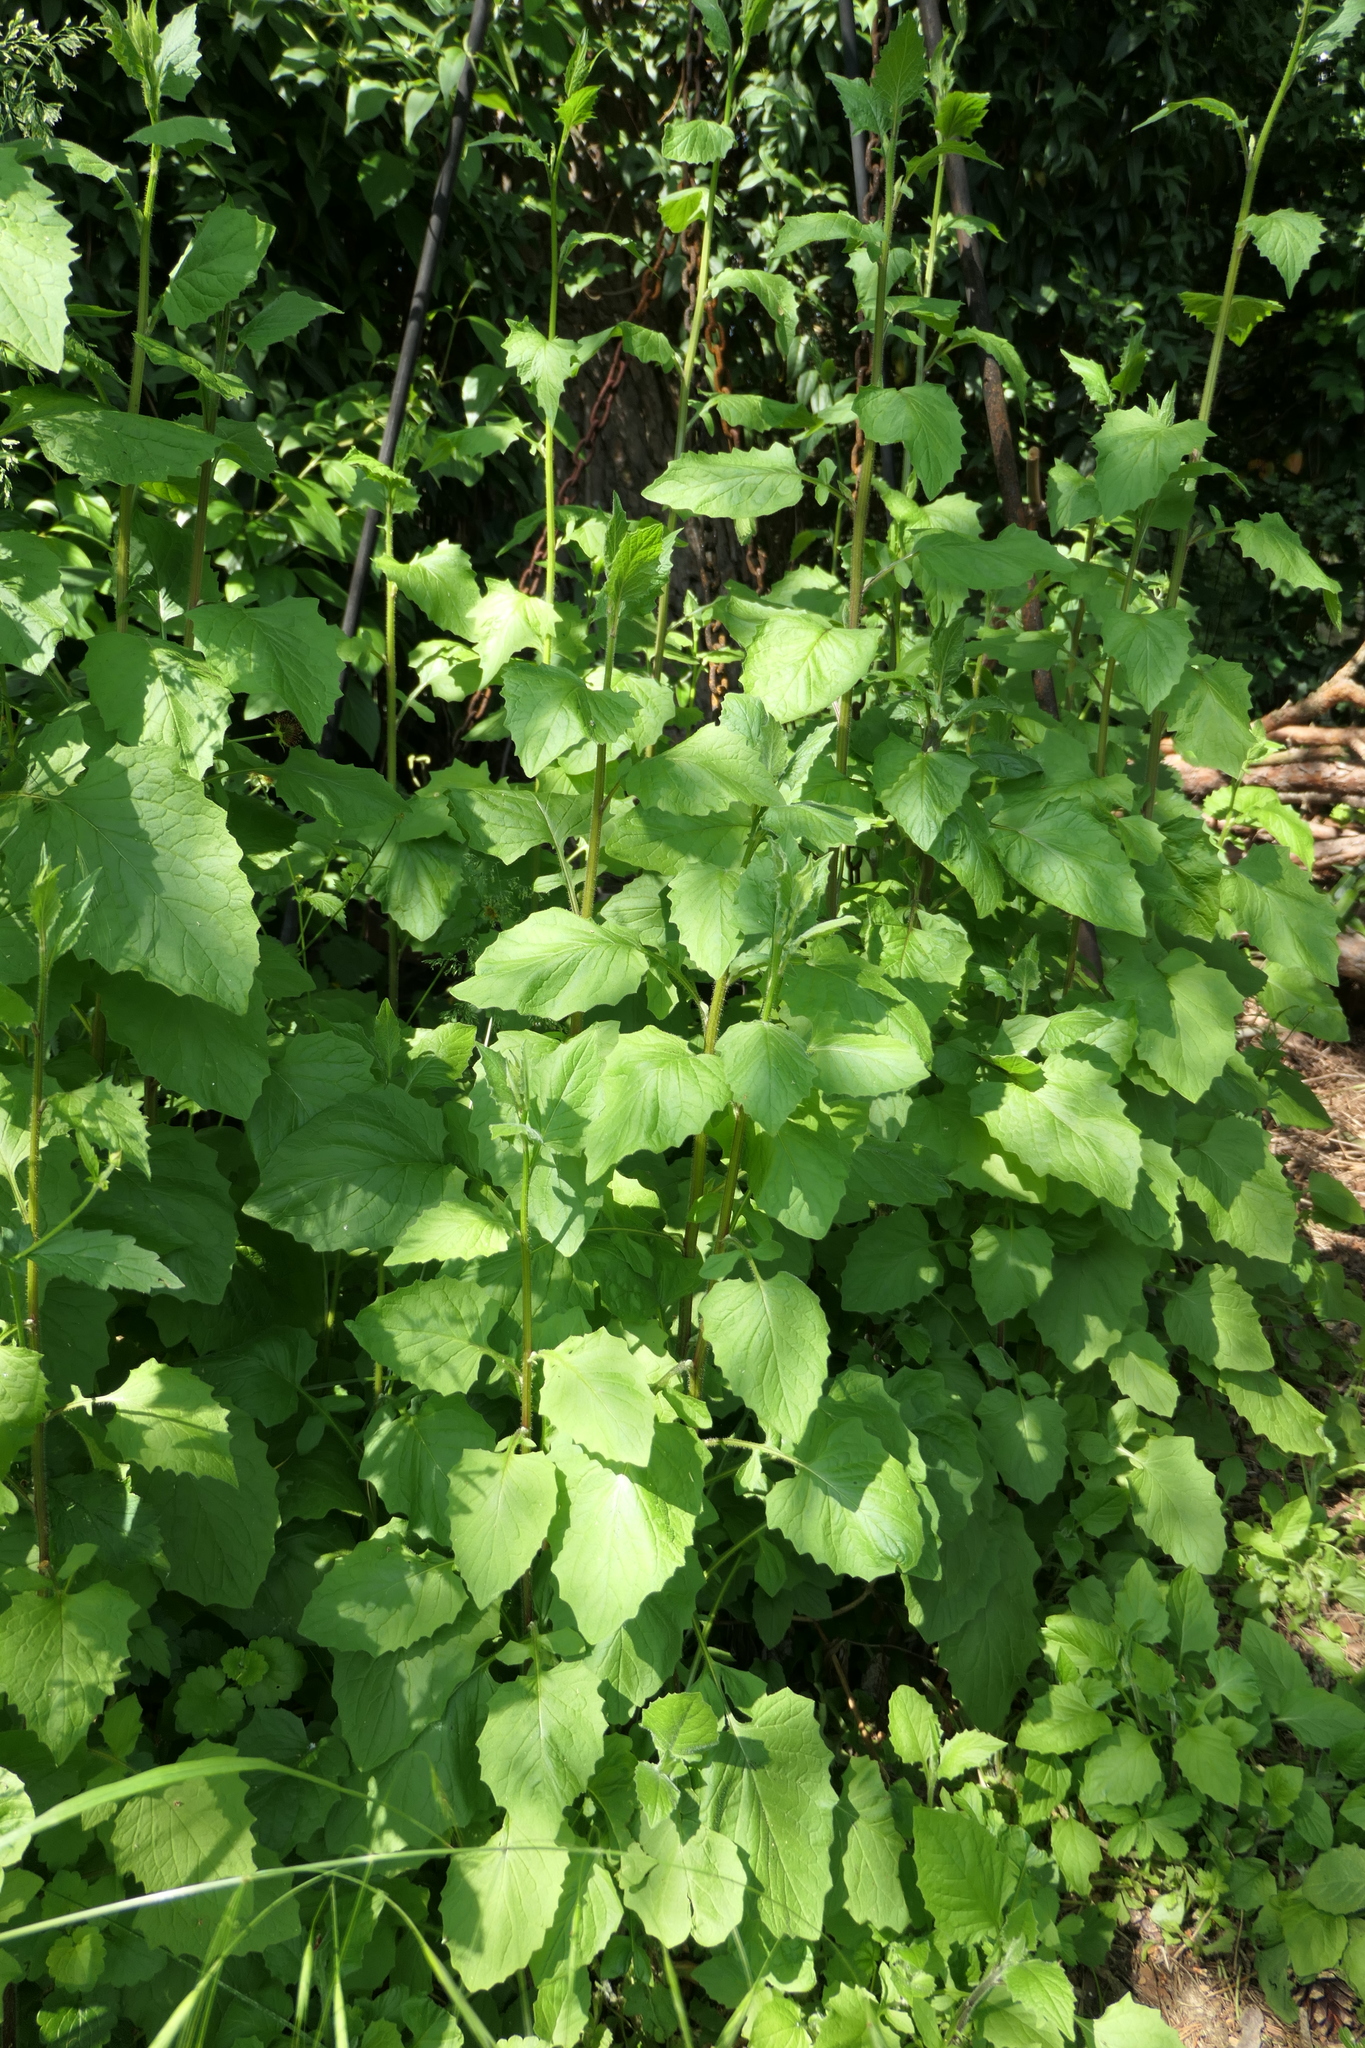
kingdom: Plantae
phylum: Tracheophyta
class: Magnoliopsida
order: Asterales
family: Asteraceae
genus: Lapsana
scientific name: Lapsana communis
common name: Nipplewort
